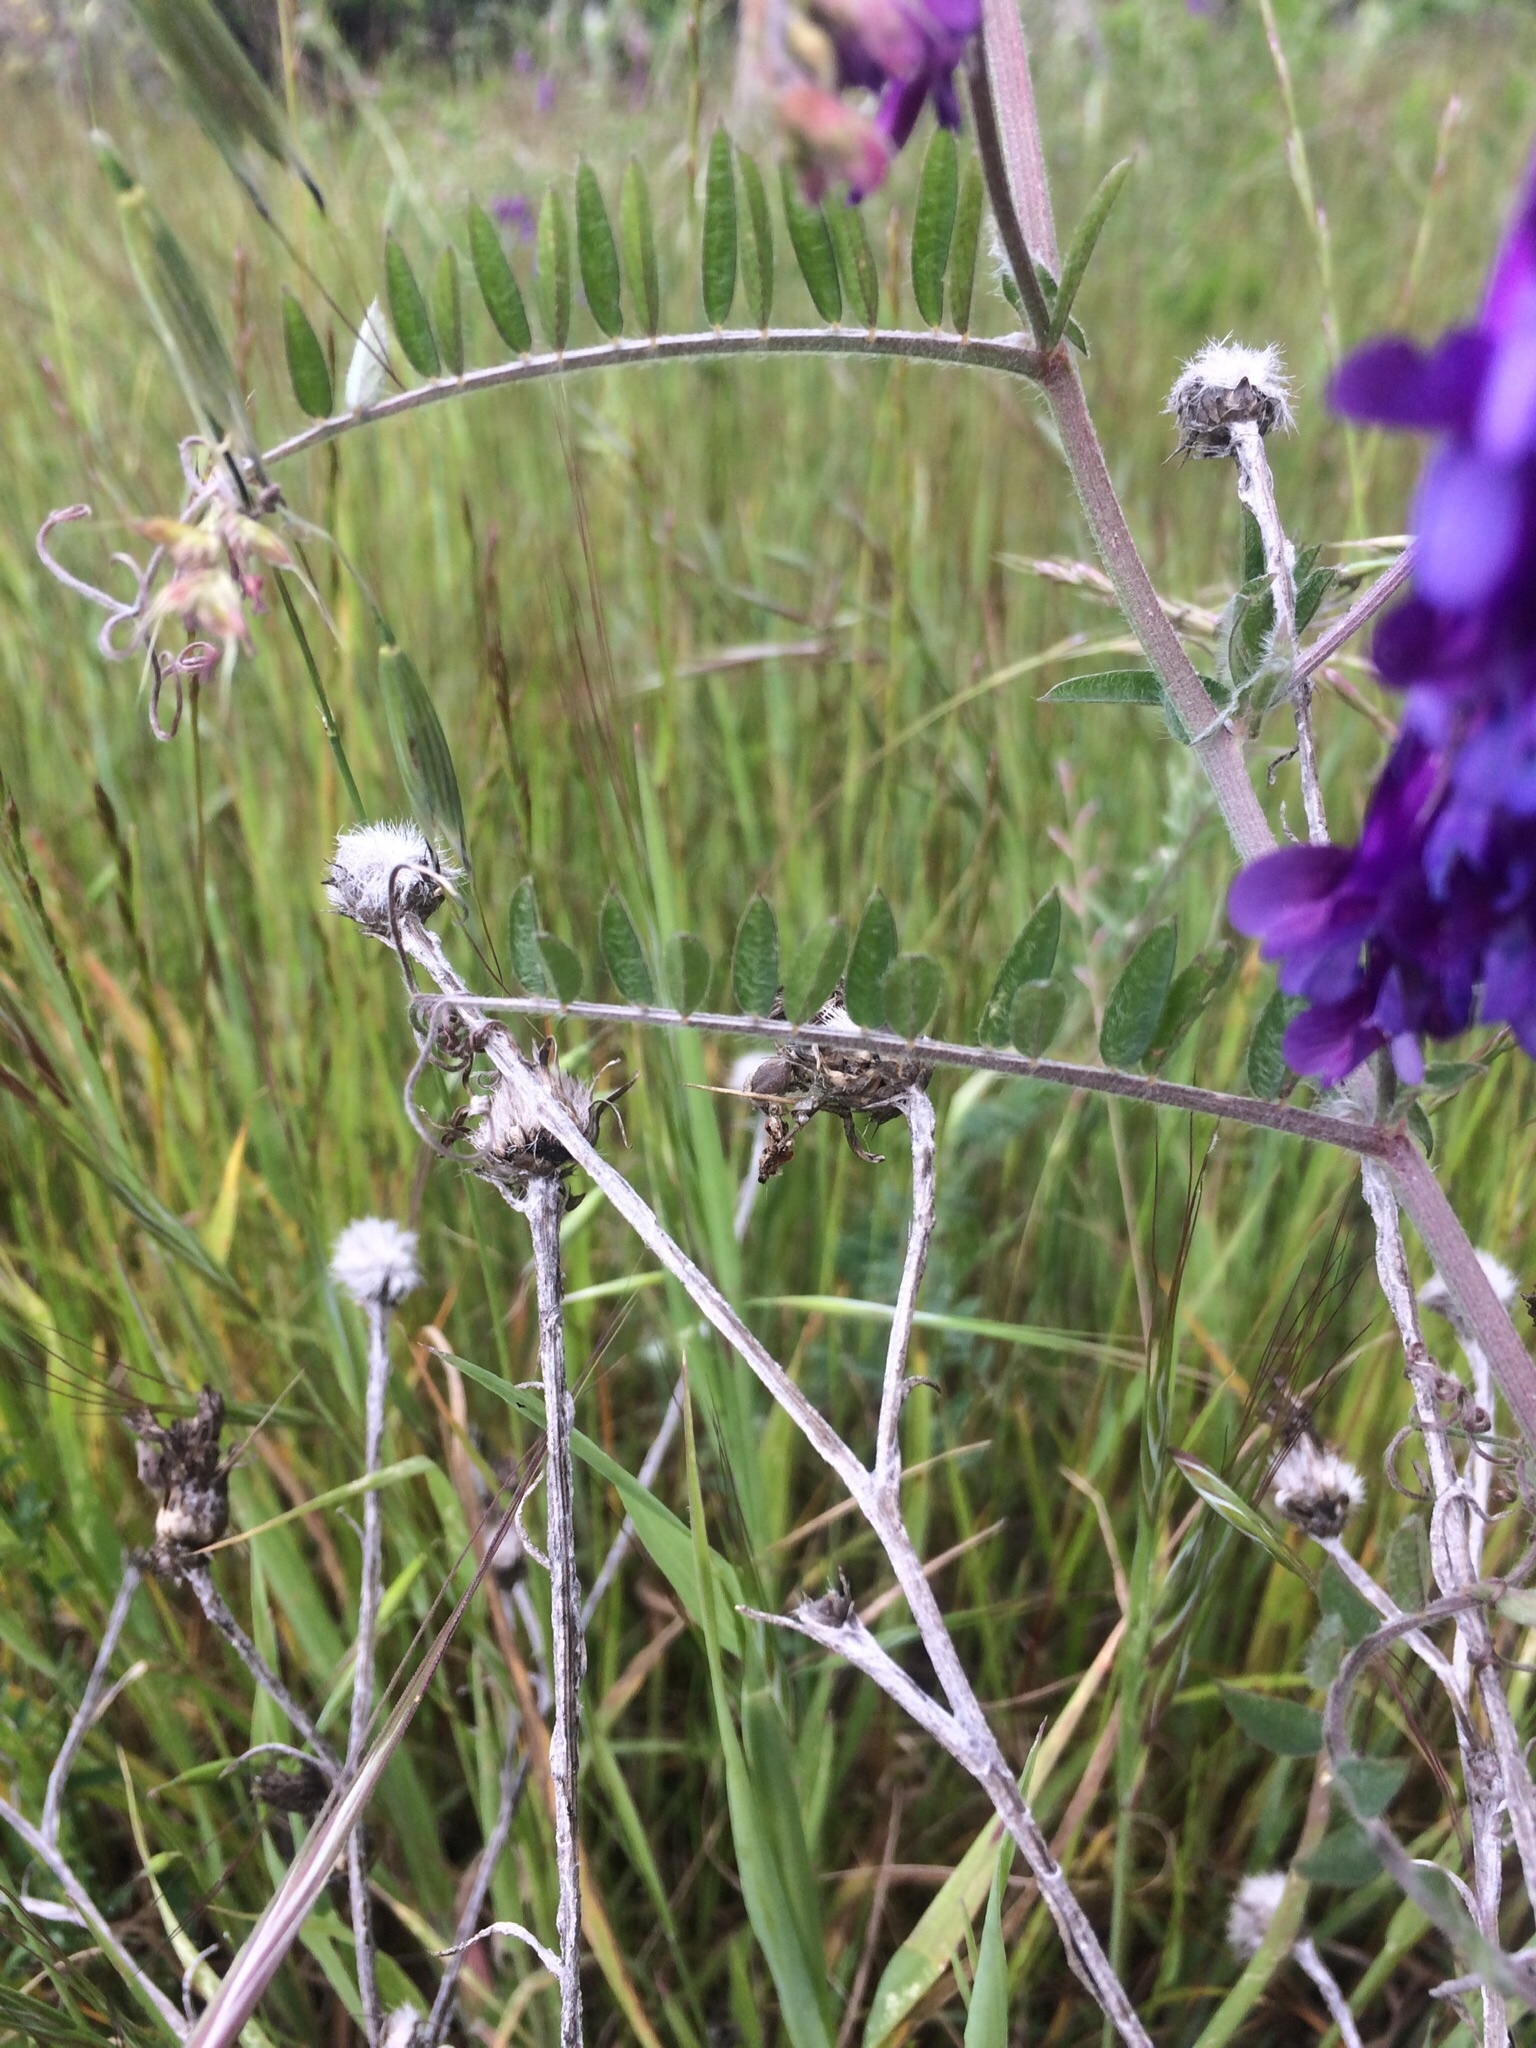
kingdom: Plantae
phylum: Tracheophyta
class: Magnoliopsida
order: Fabales
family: Fabaceae
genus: Vicia
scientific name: Vicia villosa
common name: Fodder vetch
